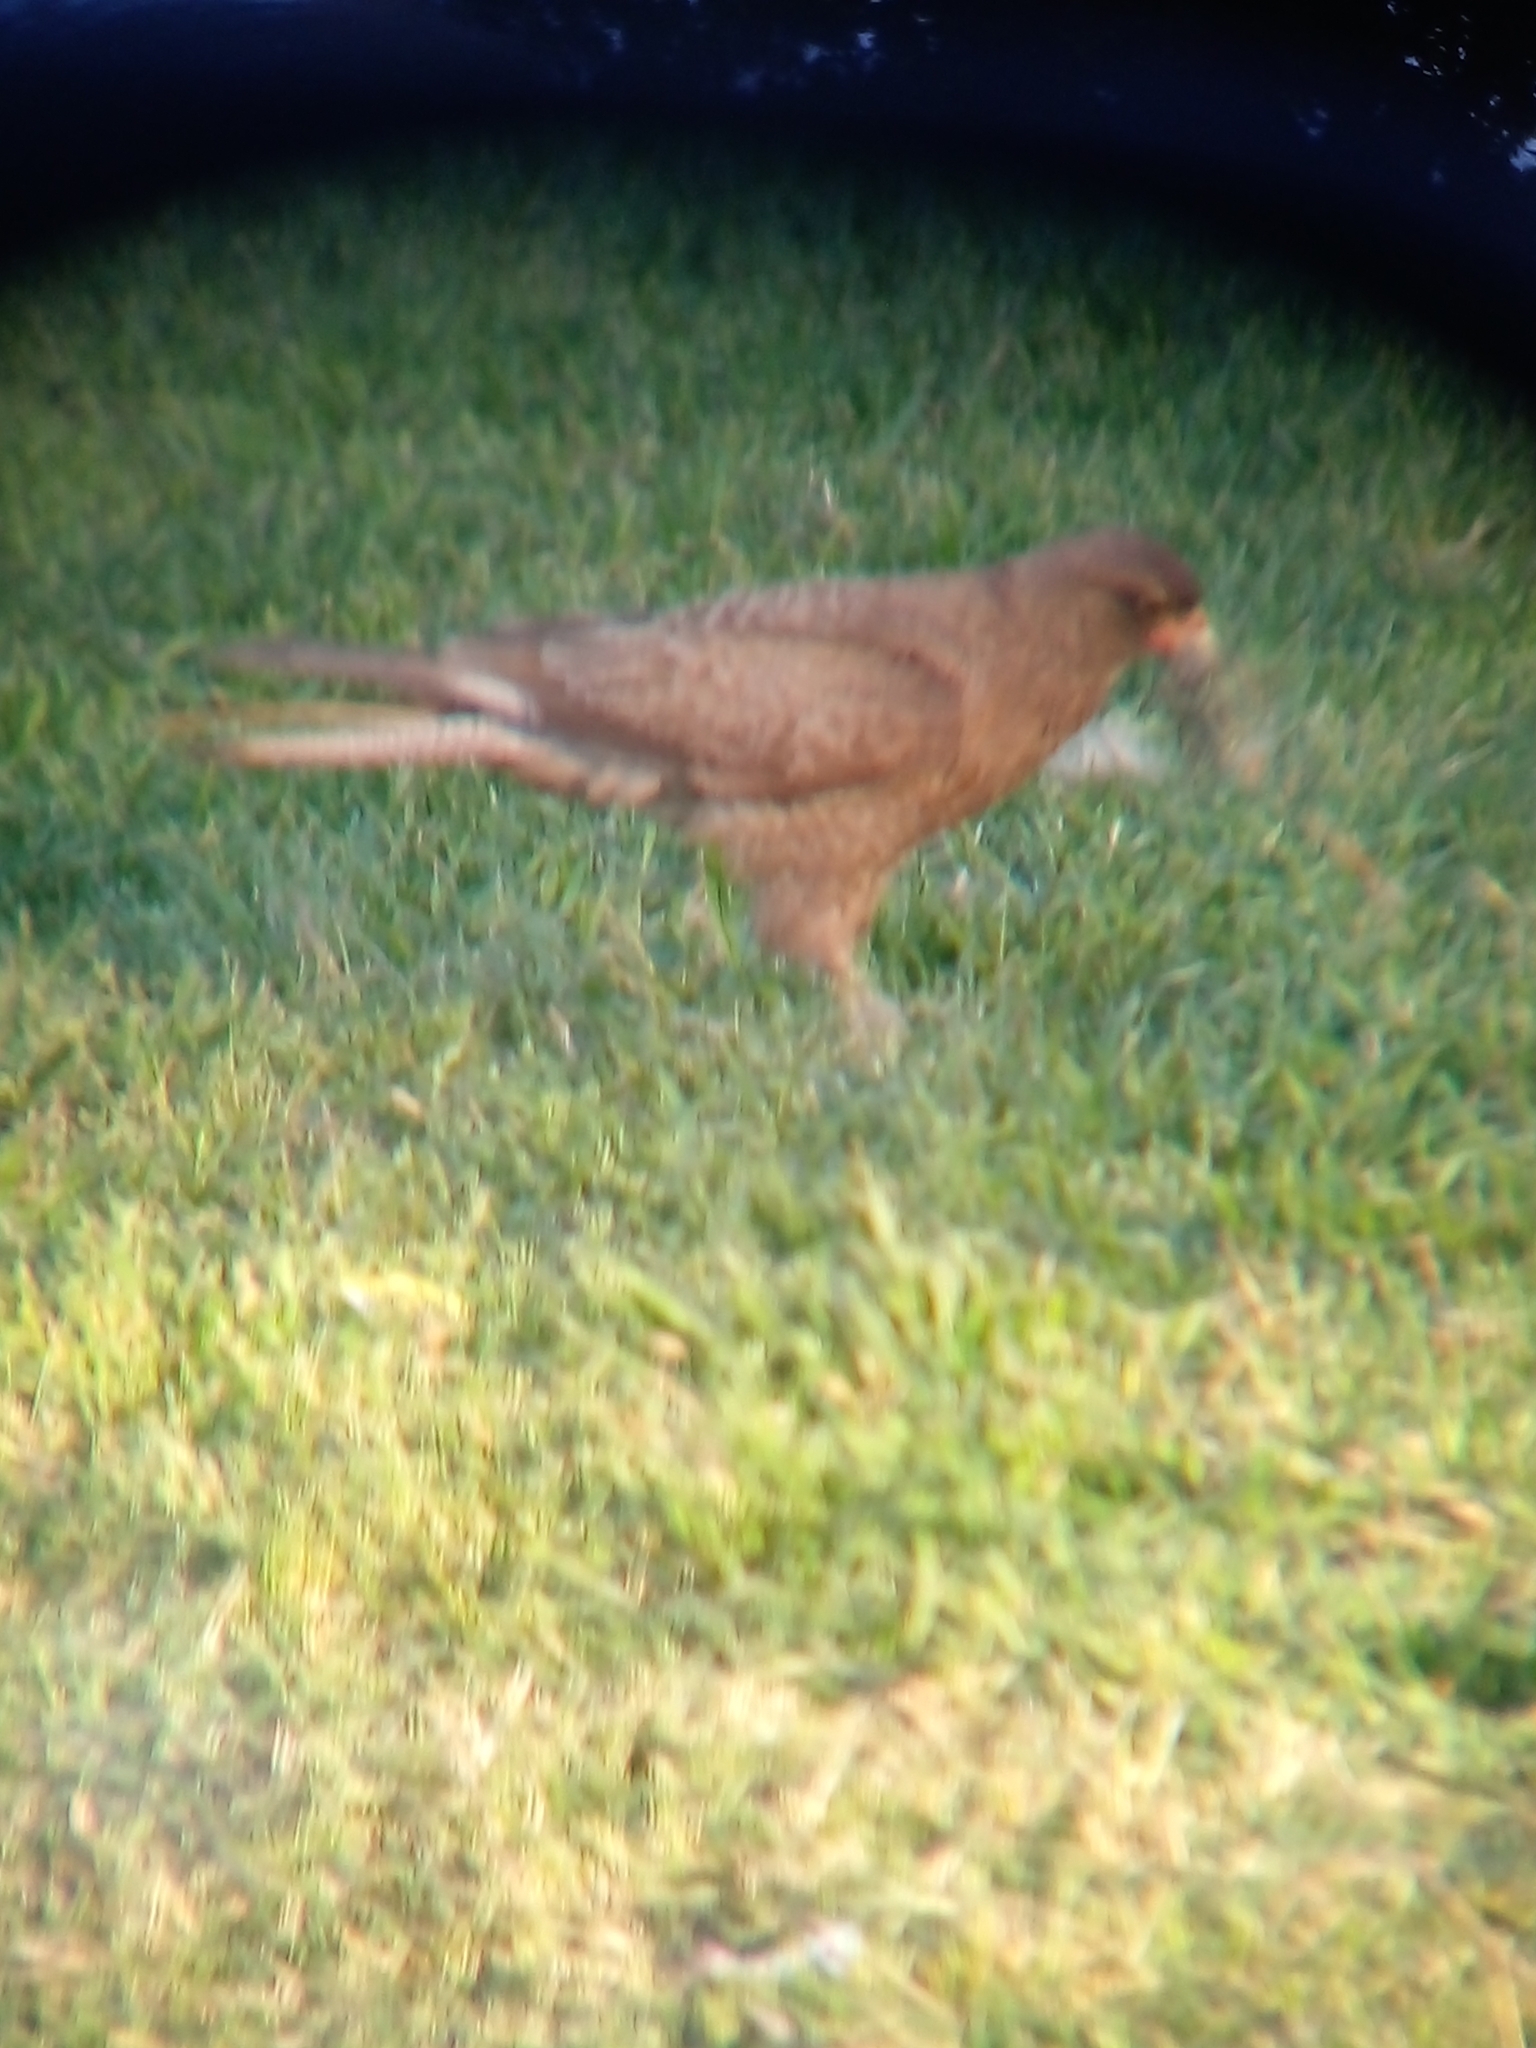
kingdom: Animalia
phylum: Chordata
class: Aves
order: Falconiformes
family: Falconidae
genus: Daptrius
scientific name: Daptrius
